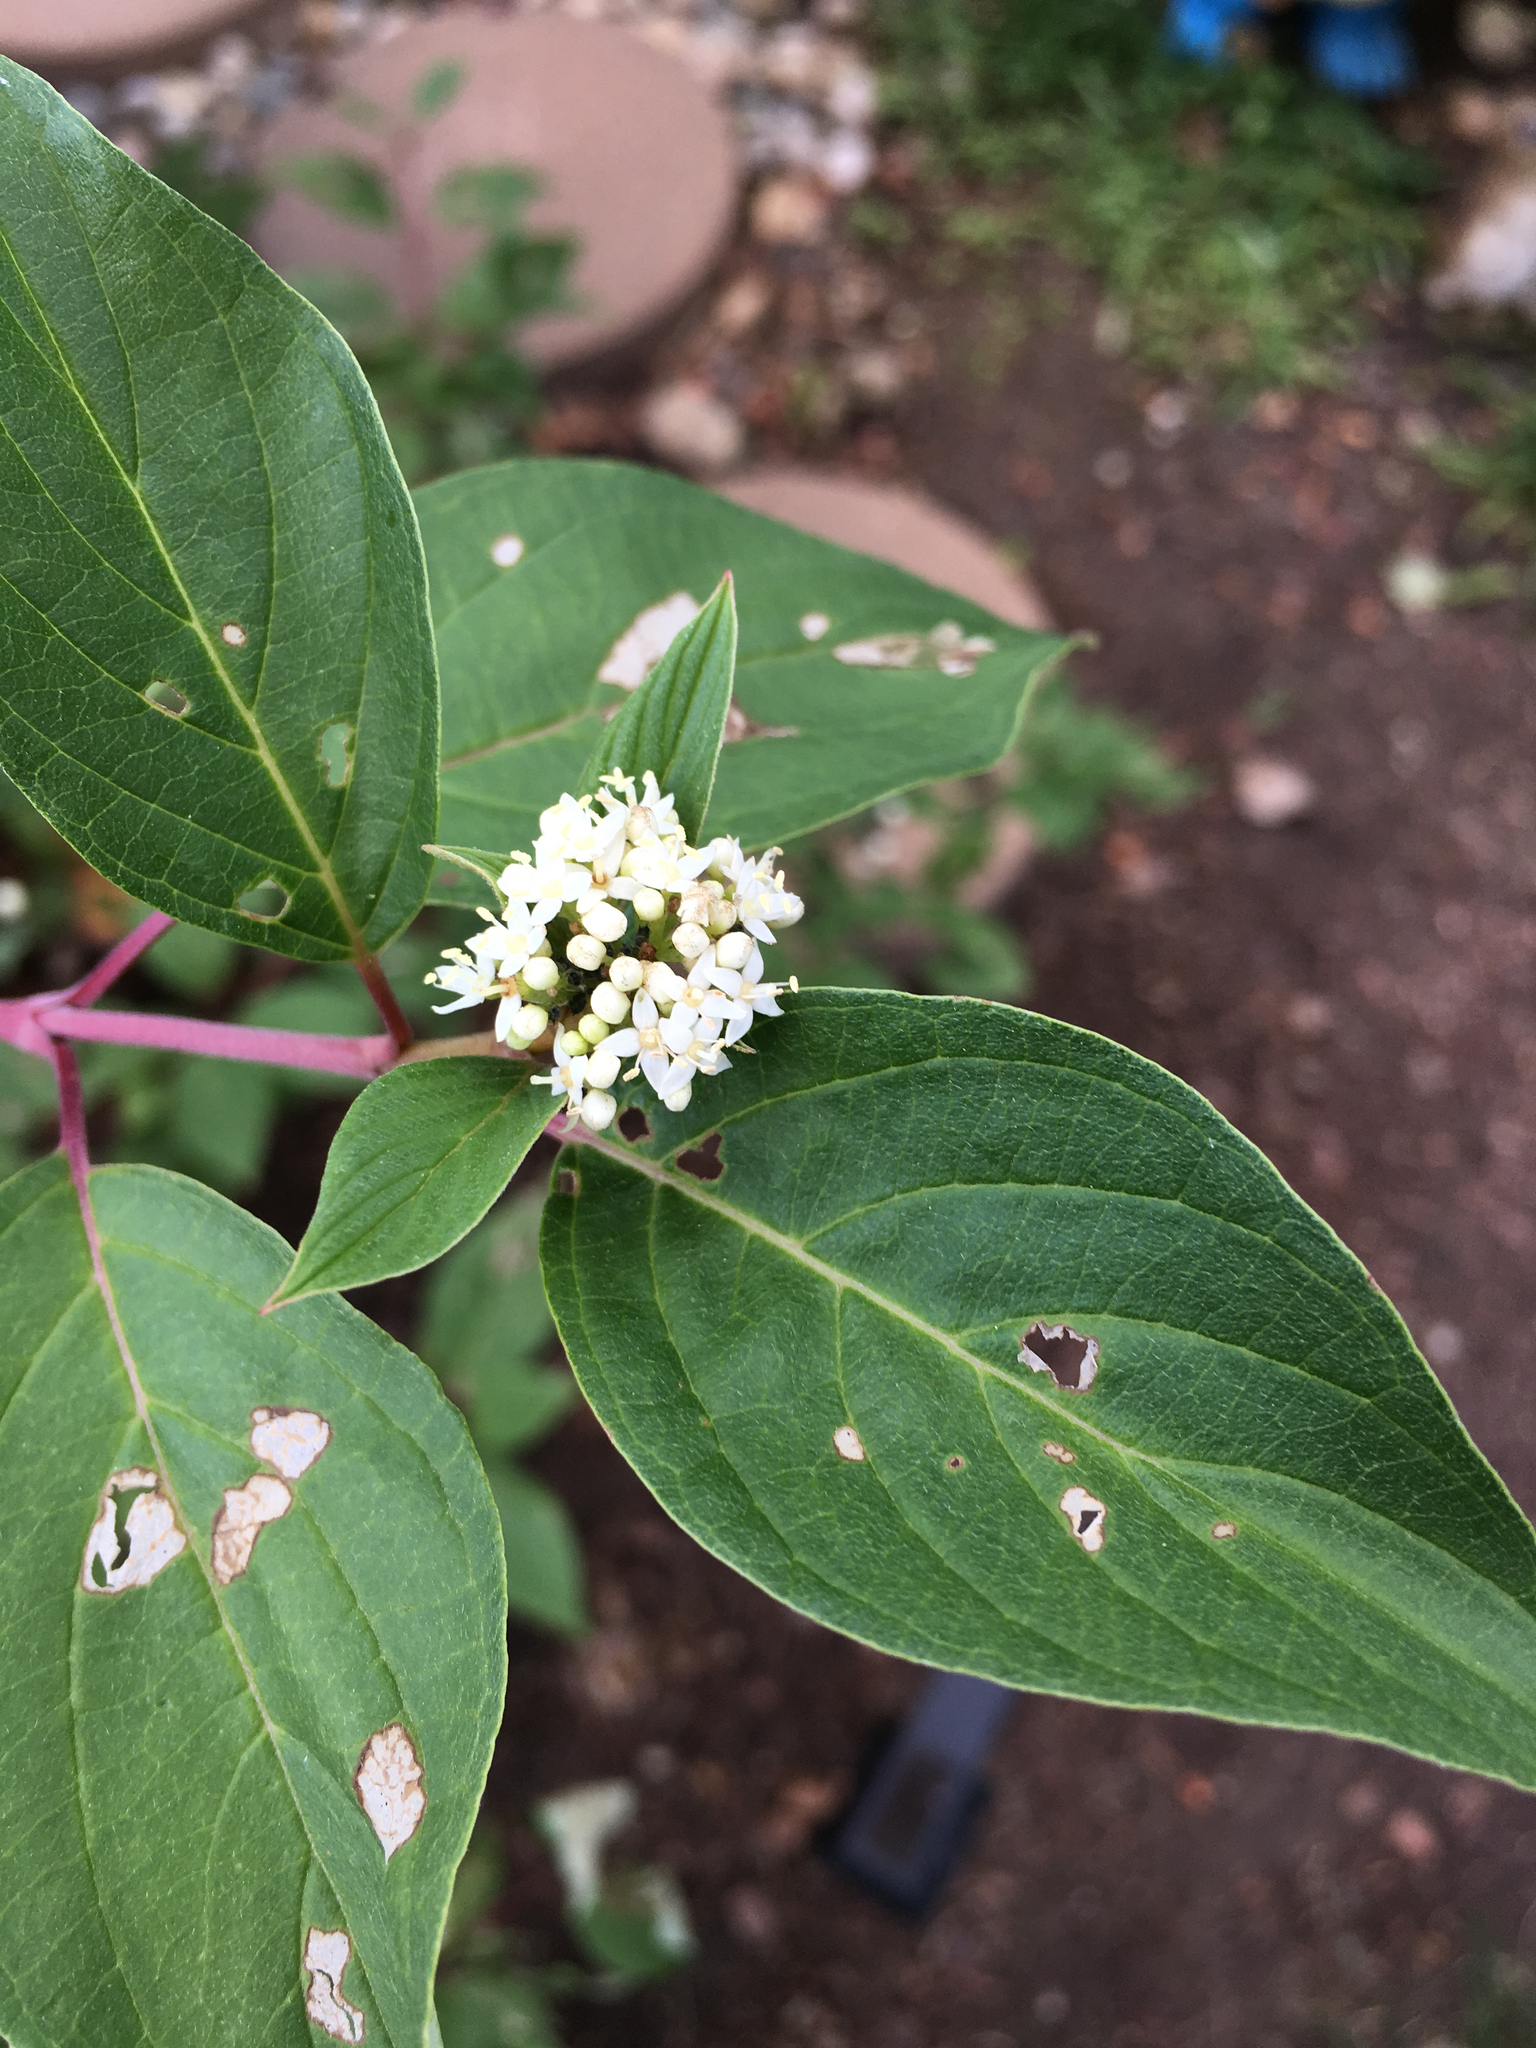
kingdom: Plantae
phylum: Tracheophyta
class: Magnoliopsida
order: Cornales
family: Cornaceae
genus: Cornus
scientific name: Cornus sericea
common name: Red-osier dogwood
